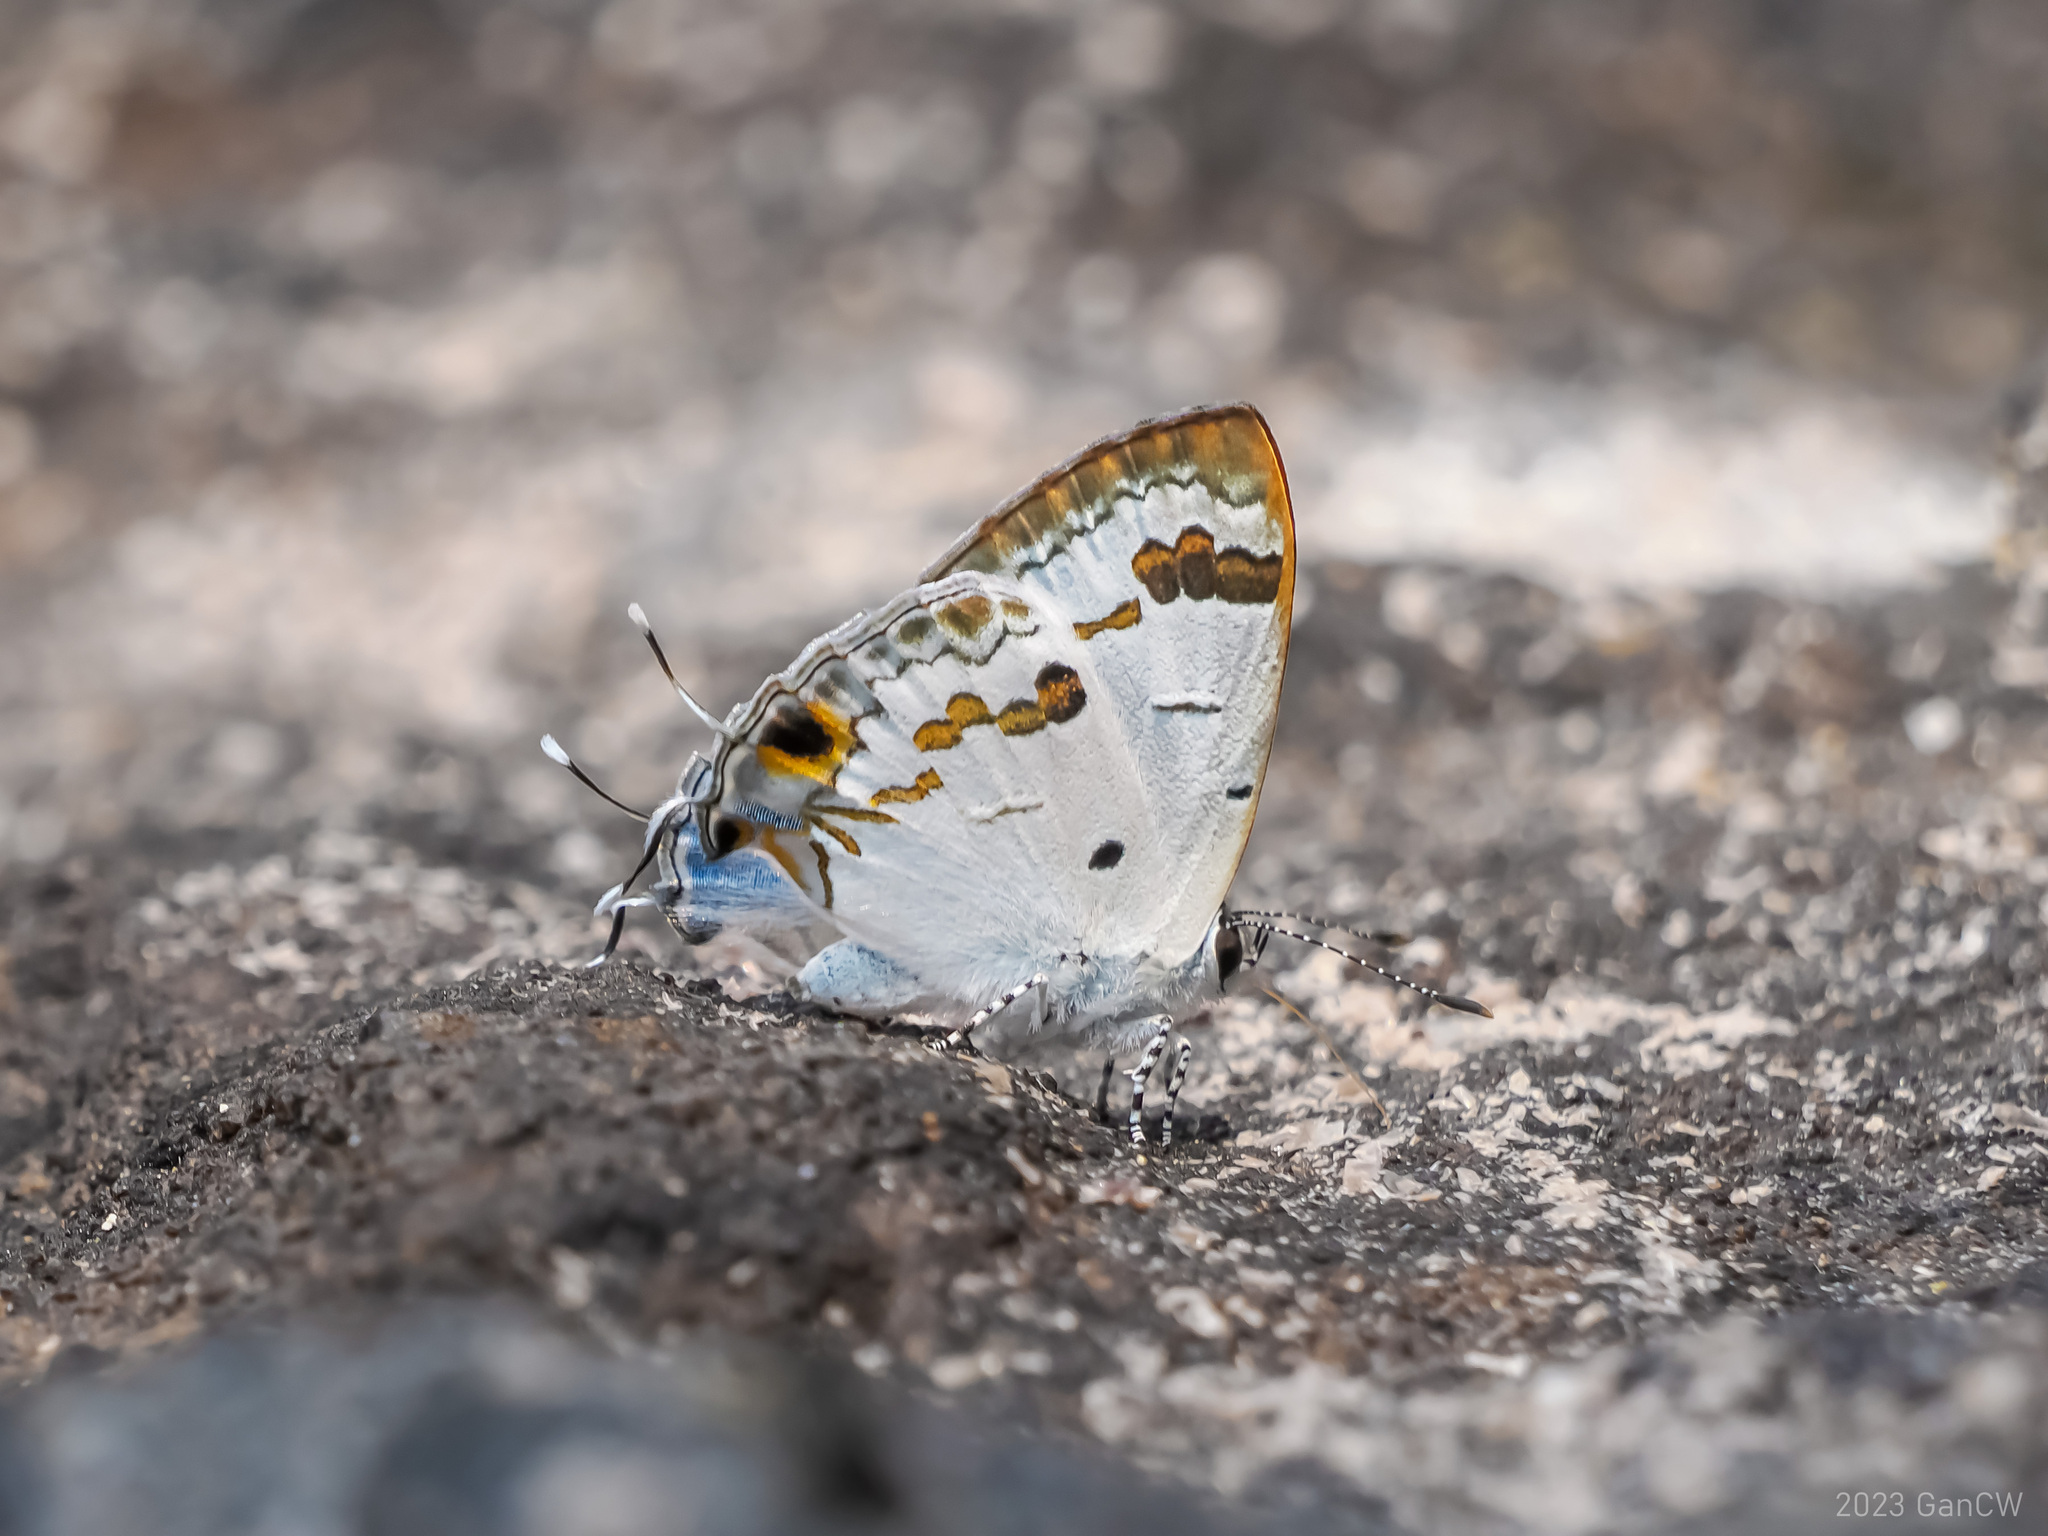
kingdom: Animalia
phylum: Arthropoda
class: Insecta
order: Lepidoptera
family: Lycaenidae
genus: Chliaria
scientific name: Chliaria othona
